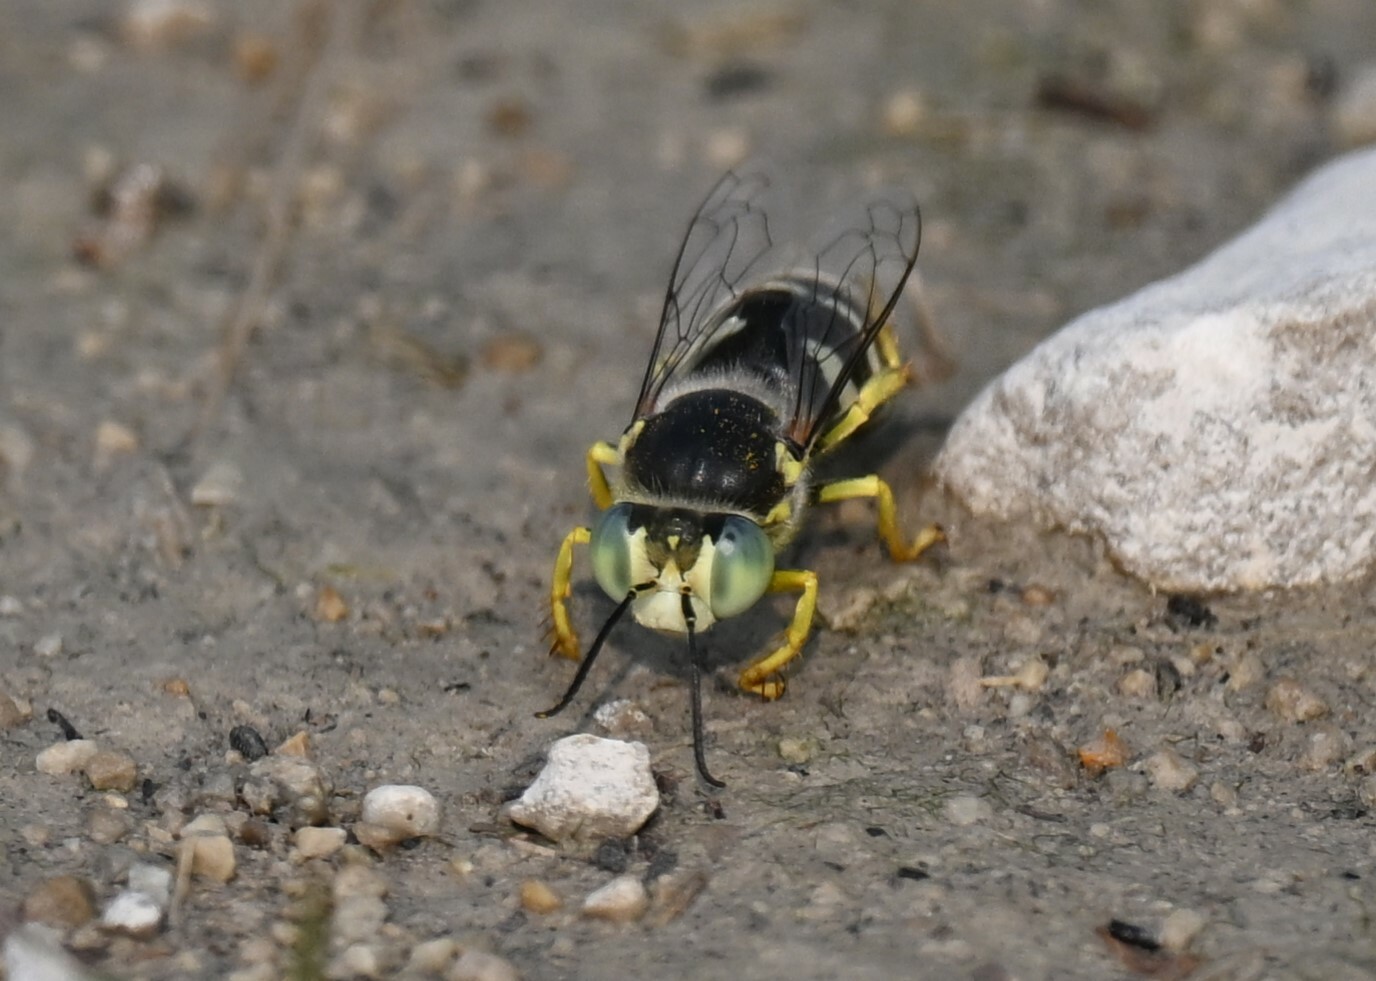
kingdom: Animalia
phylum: Arthropoda
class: Insecta
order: Hymenoptera
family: Crabronidae
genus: Bembix
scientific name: Bembix americana
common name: American sand wasp
